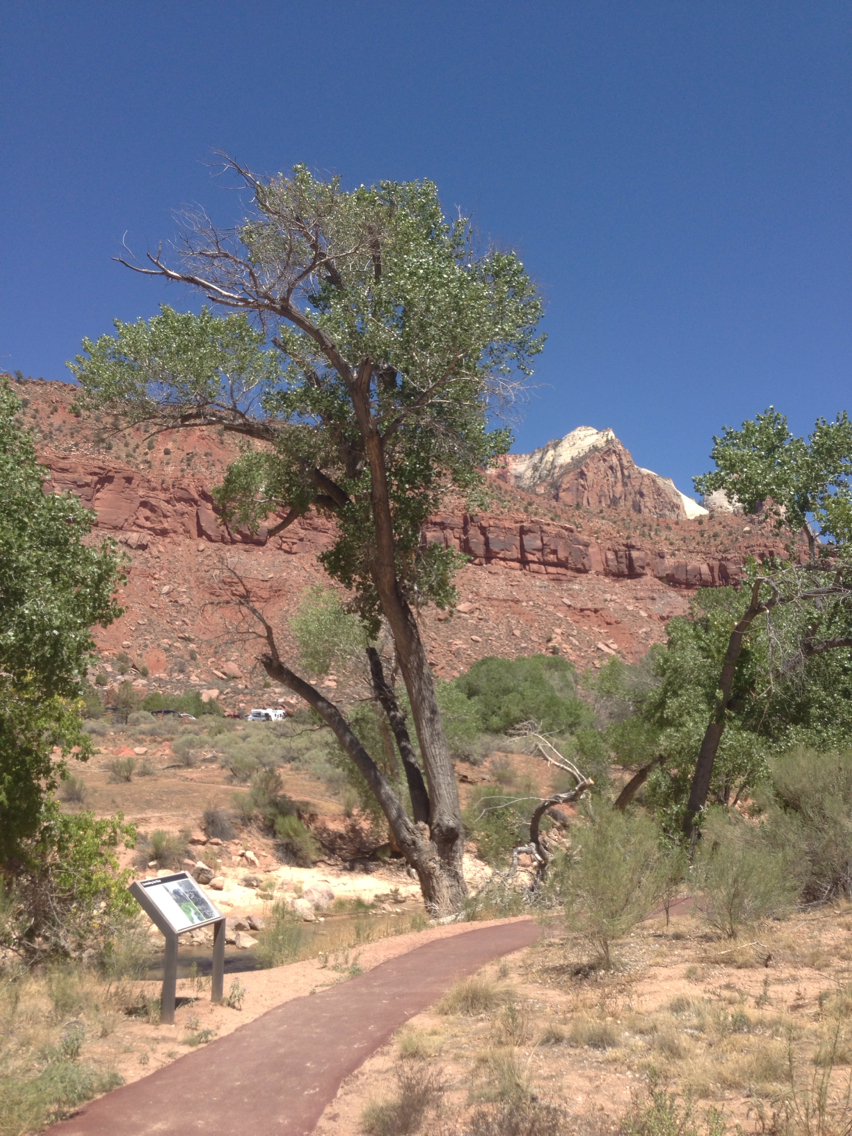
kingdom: Plantae
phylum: Tracheophyta
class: Magnoliopsida
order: Malpighiales
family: Salicaceae
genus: Populus
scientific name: Populus fremontii
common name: Fremont's cottonwood
